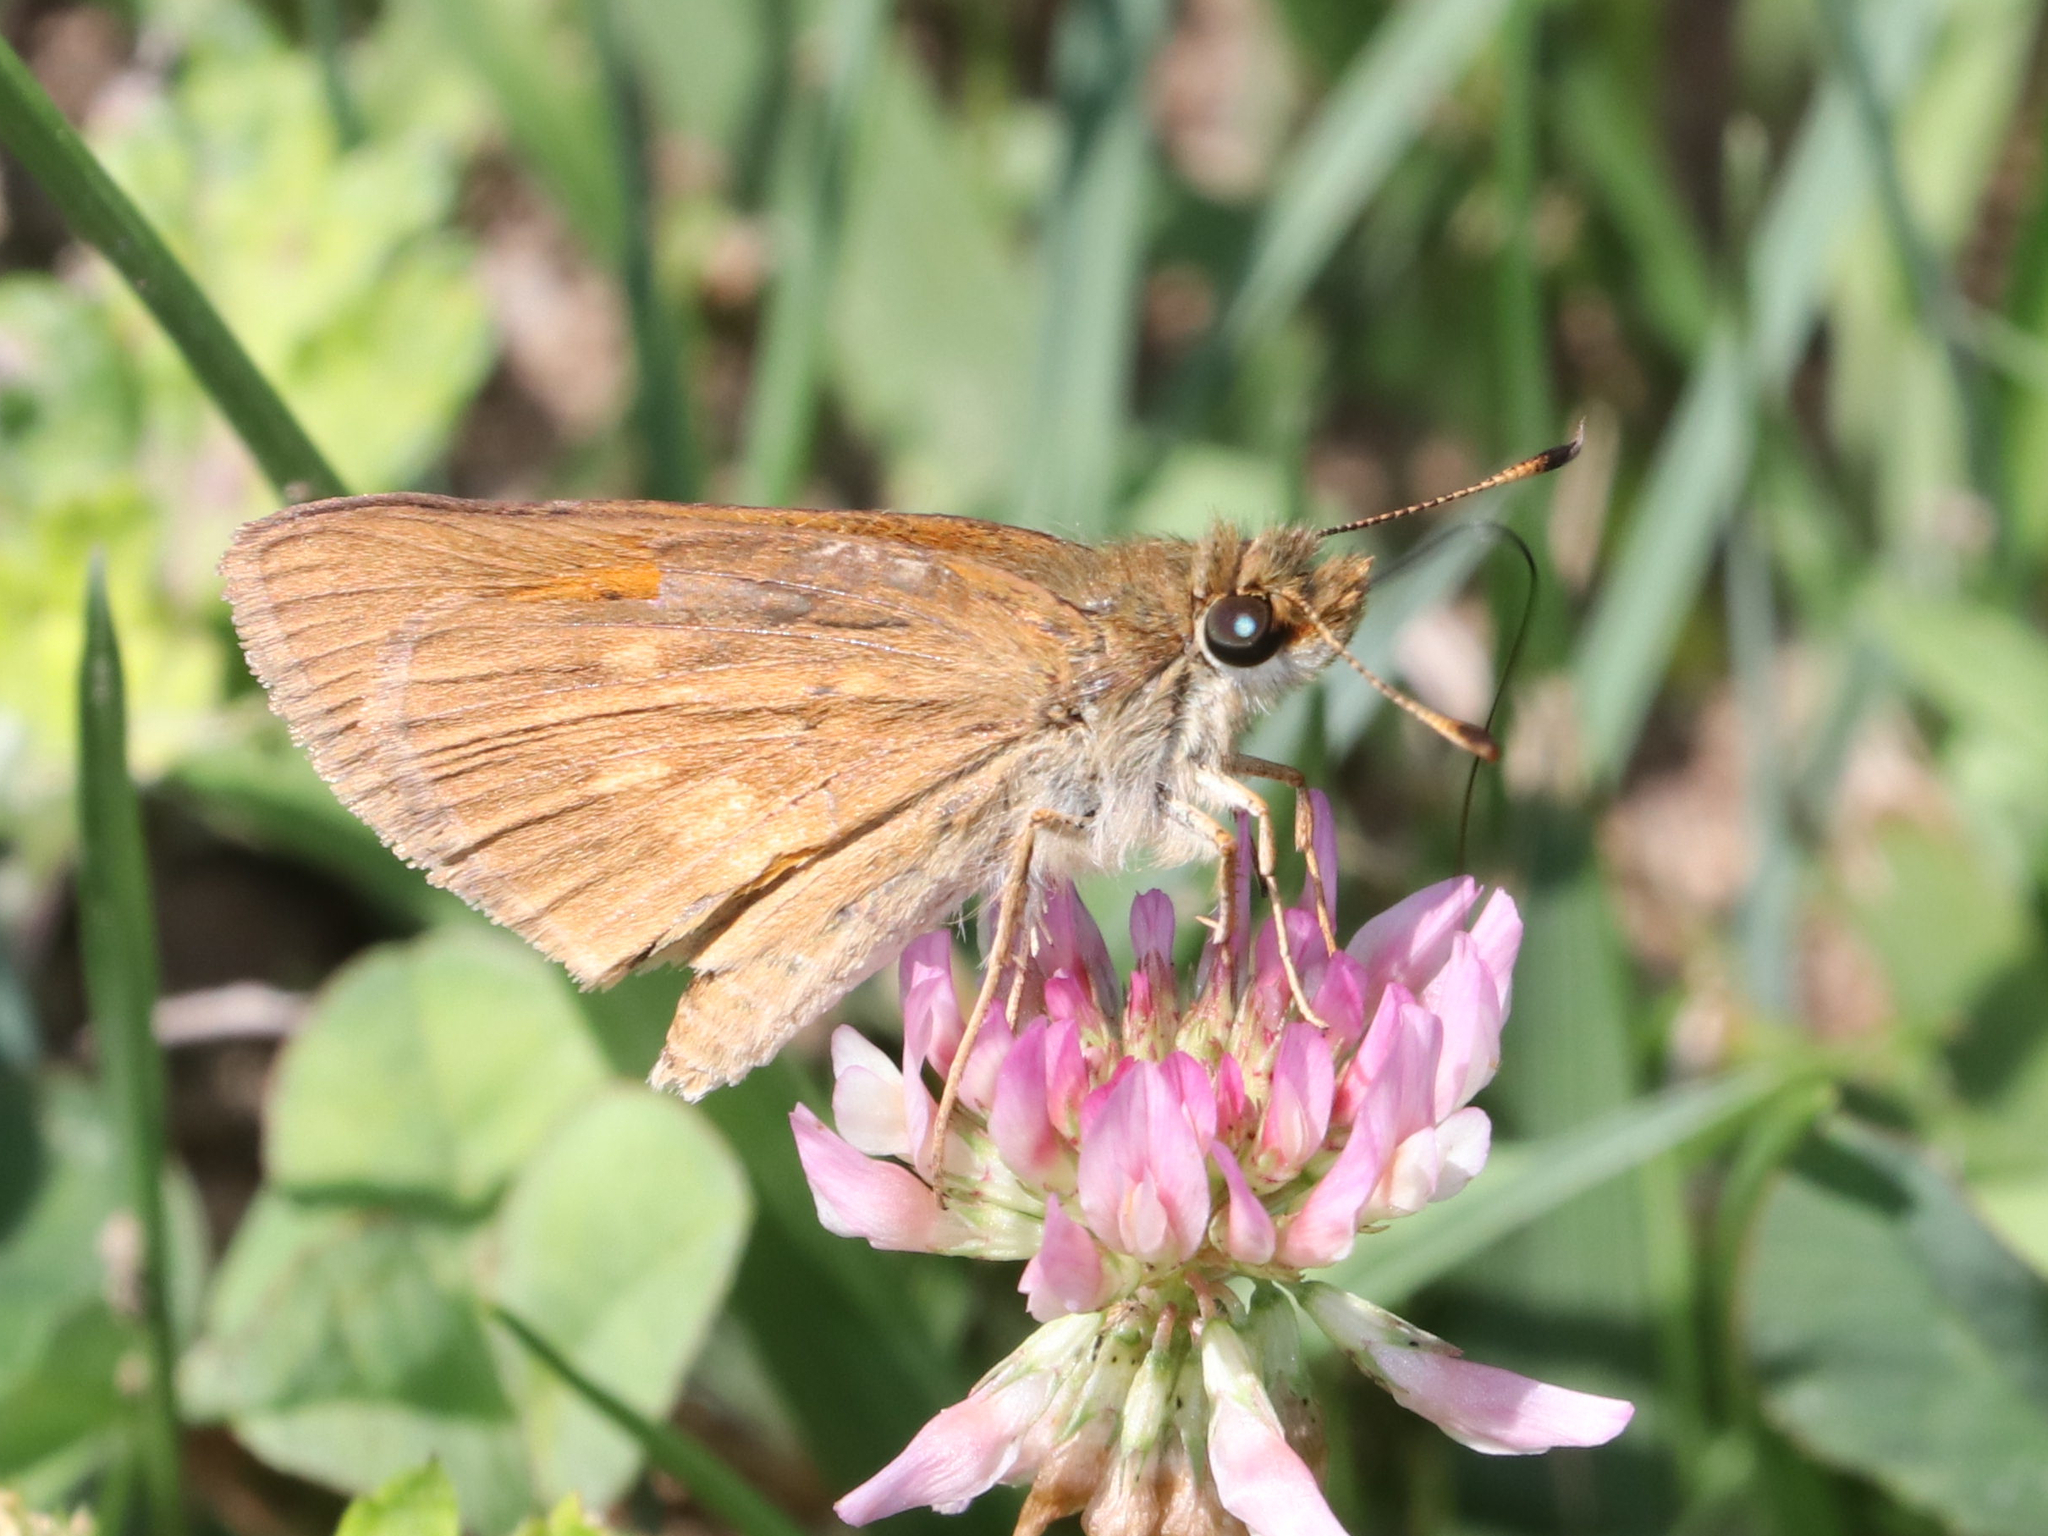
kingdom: Animalia
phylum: Arthropoda
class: Insecta
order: Lepidoptera
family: Hesperiidae
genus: Poanes
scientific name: Poanes viator
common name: Broad-winged skipper
